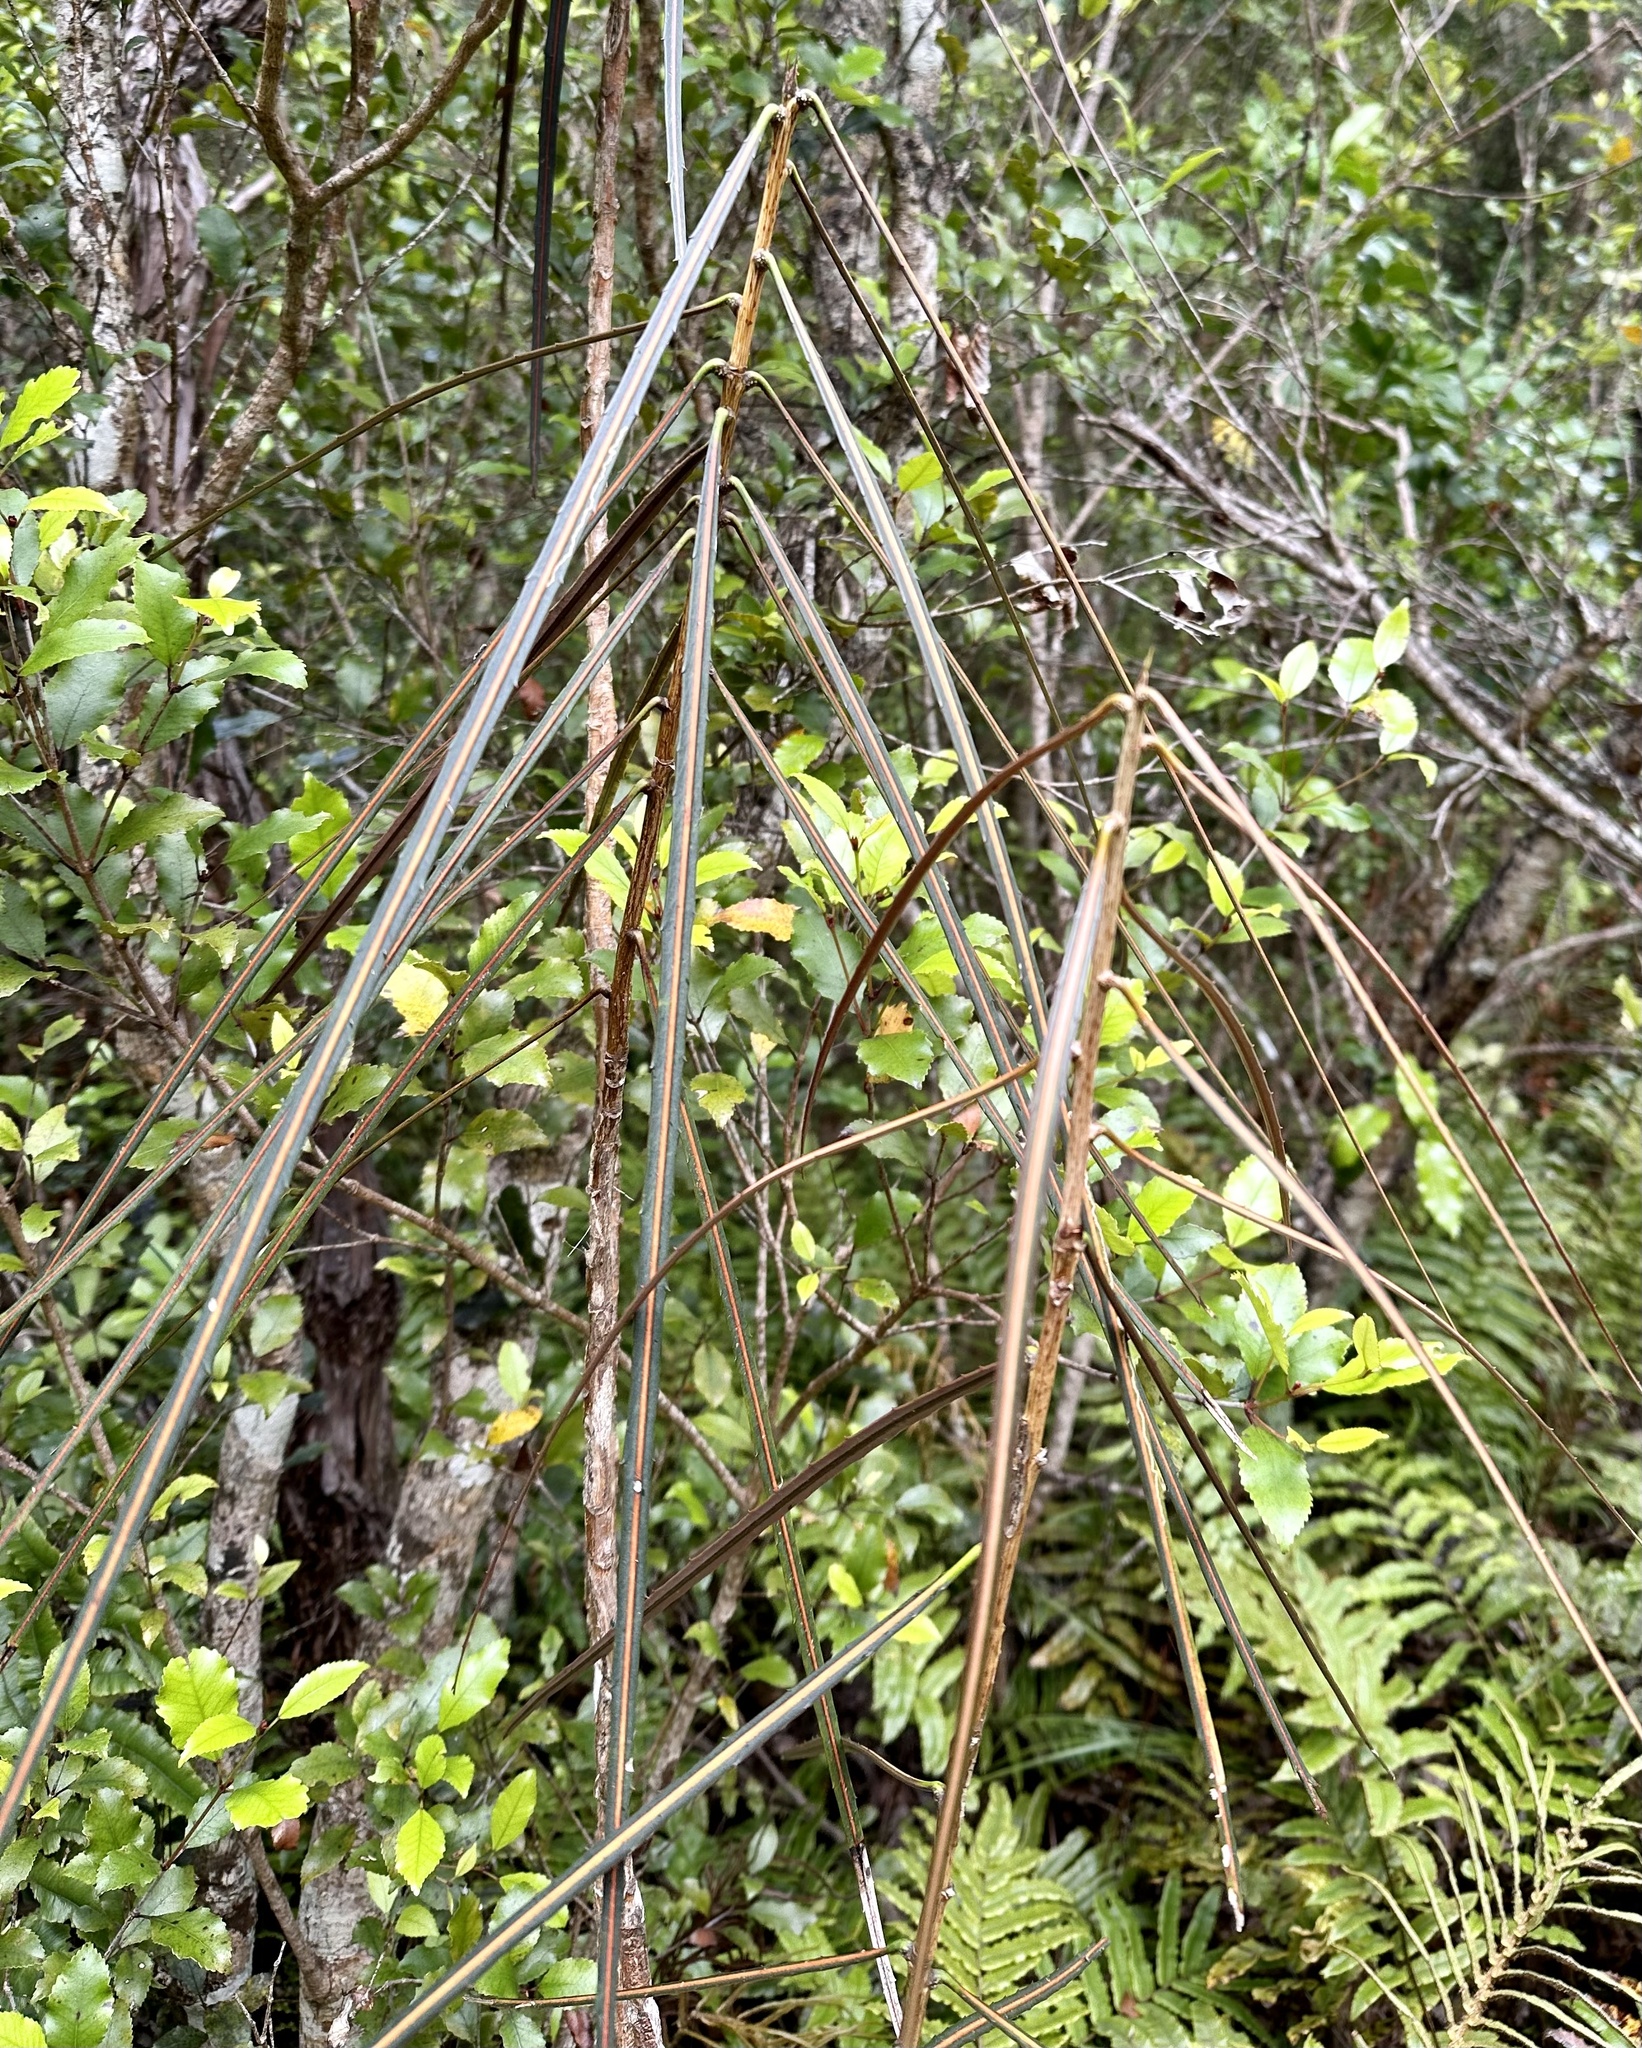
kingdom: Plantae
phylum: Tracheophyta
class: Magnoliopsida
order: Apiales
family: Araliaceae
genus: Pseudopanax
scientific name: Pseudopanax crassifolius
